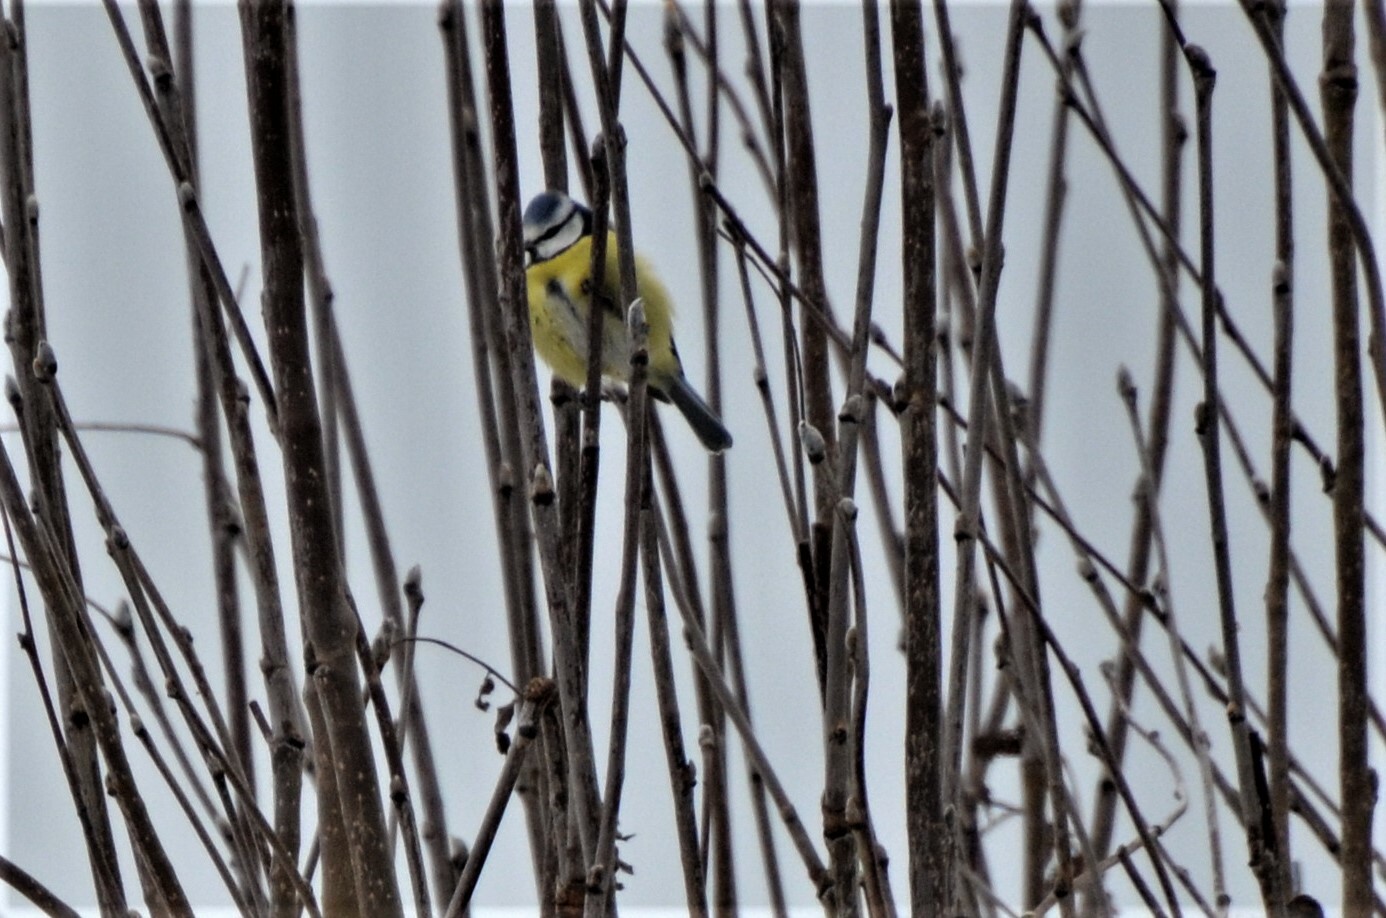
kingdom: Animalia
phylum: Chordata
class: Aves
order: Passeriformes
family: Paridae
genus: Cyanistes
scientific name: Cyanistes caeruleus
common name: Eurasian blue tit
